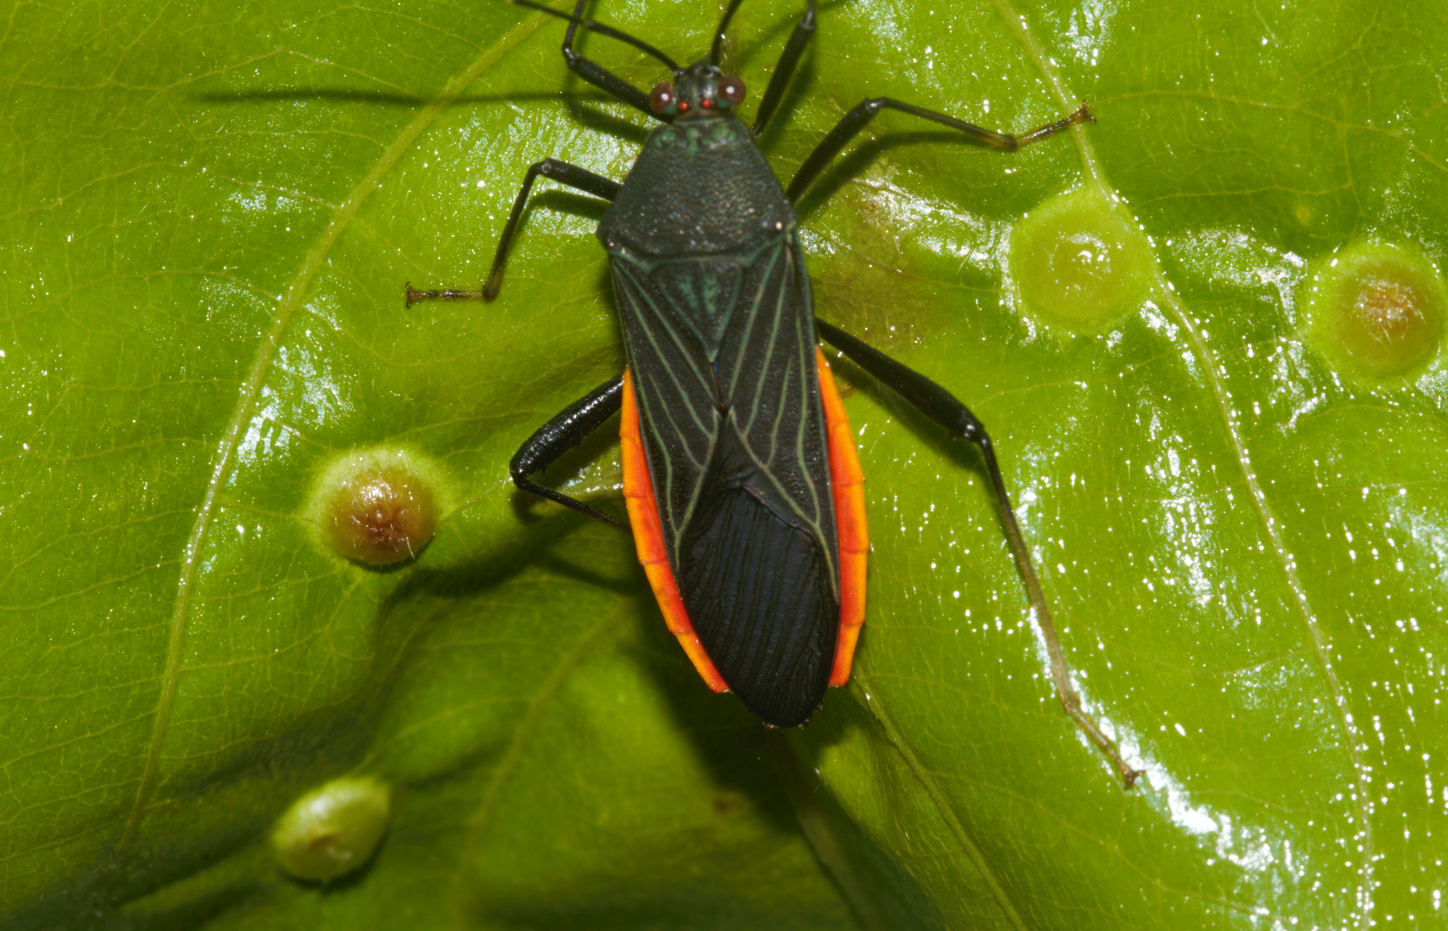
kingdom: Animalia
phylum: Arthropoda
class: Insecta
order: Hemiptera
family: Coreidae
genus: Nematopus
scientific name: Nematopus indus
